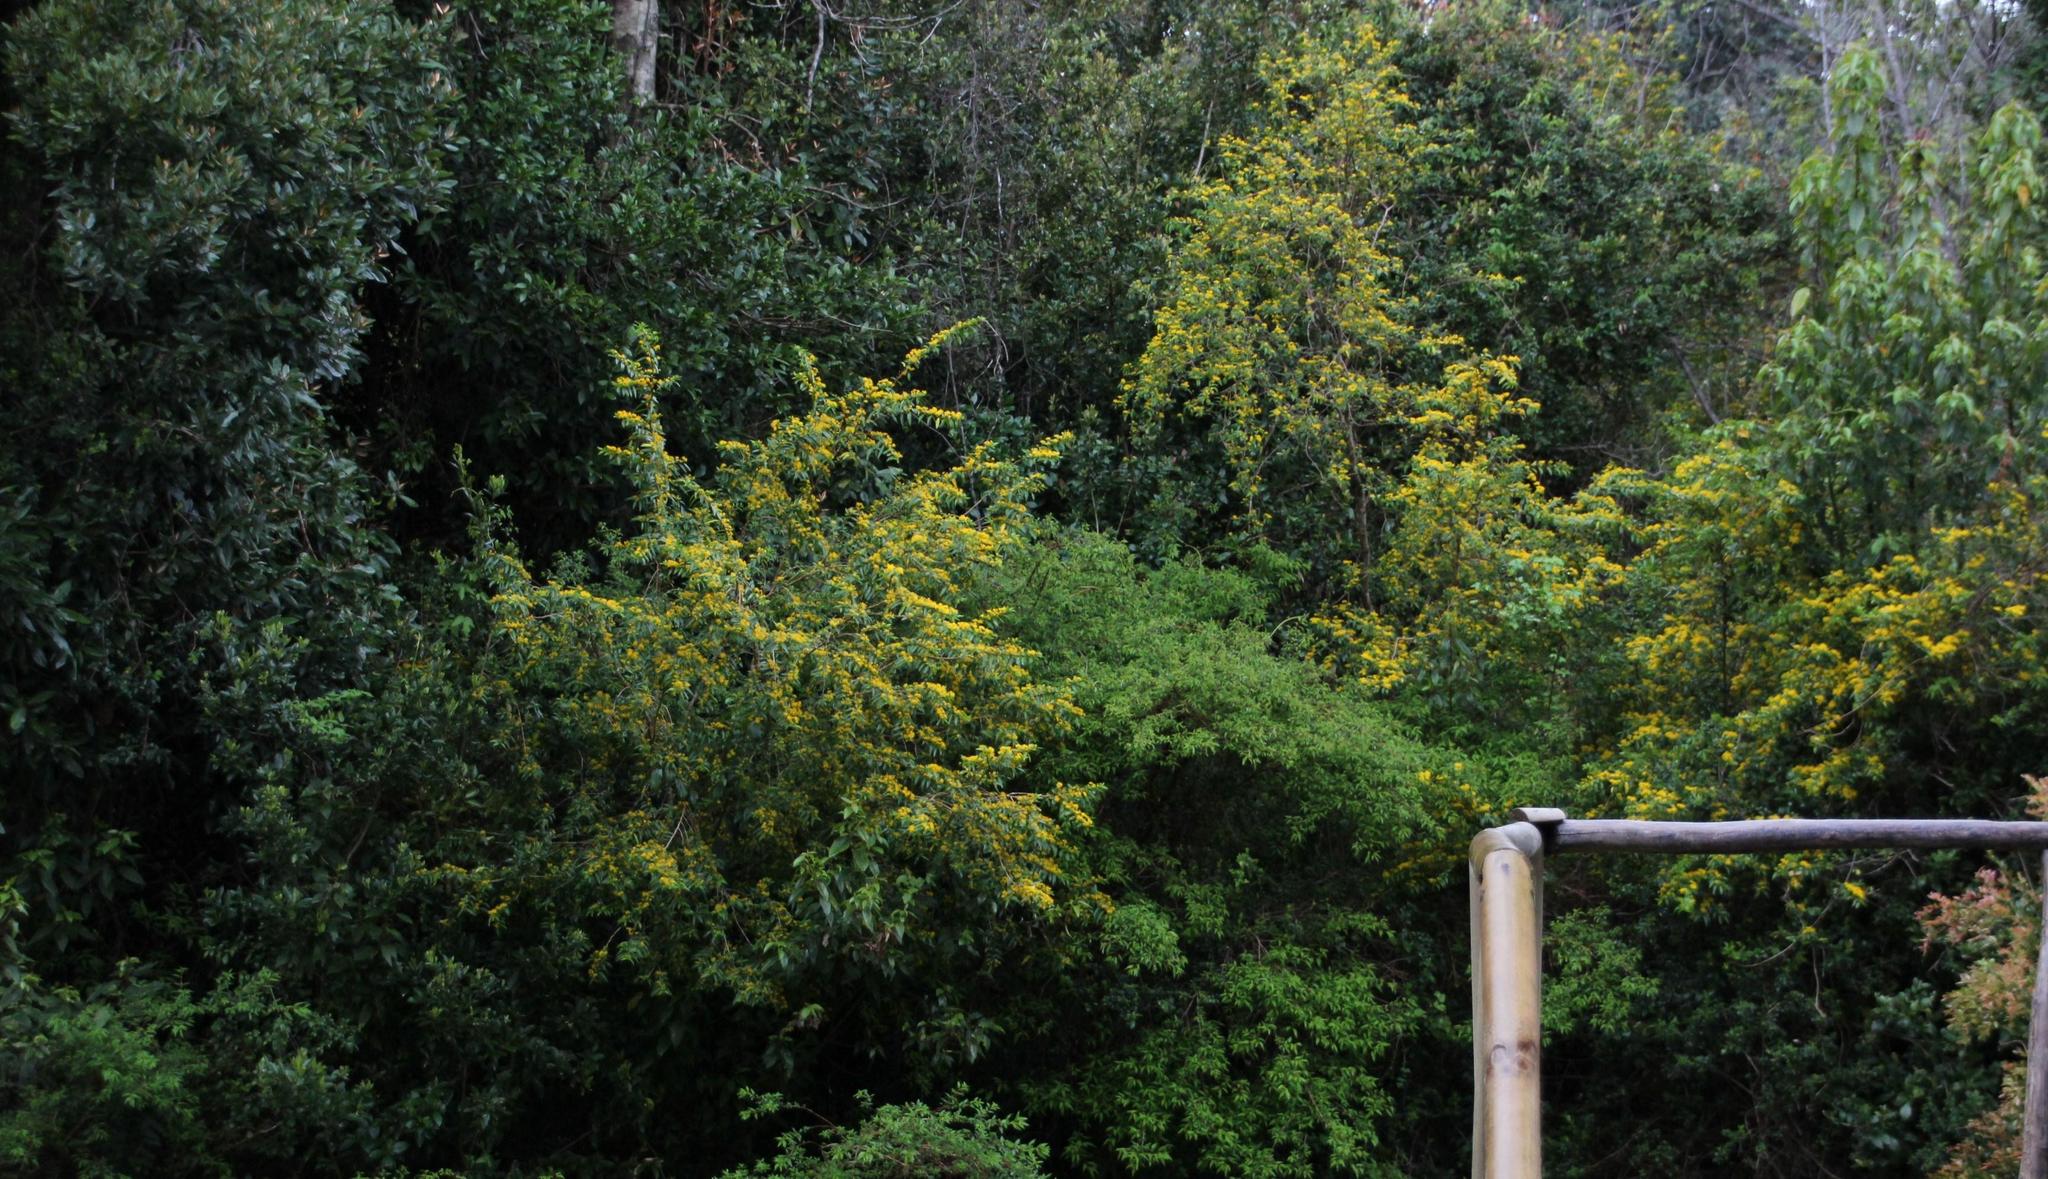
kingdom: Plantae
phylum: Tracheophyta
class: Magnoliopsida
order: Malpighiales
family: Salicaceae
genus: Azara
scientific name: Azara lanceolata
